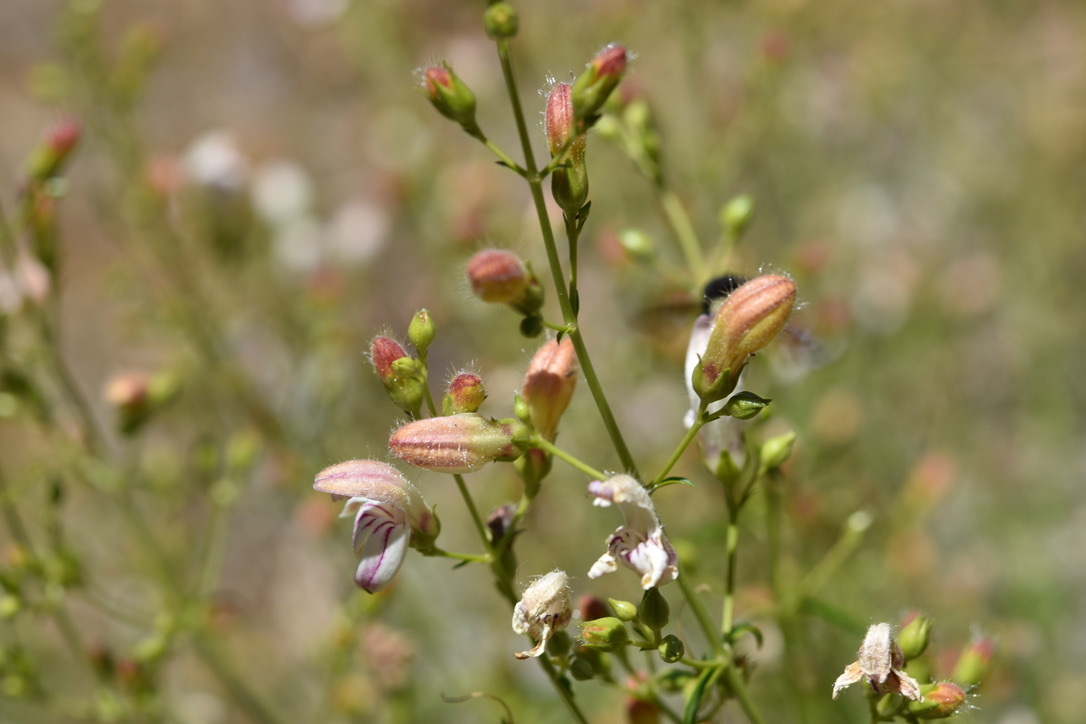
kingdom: Plantae
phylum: Tracheophyta
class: Magnoliopsida
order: Lamiales
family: Plantaginaceae
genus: Keckiella
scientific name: Keckiella breviflora
